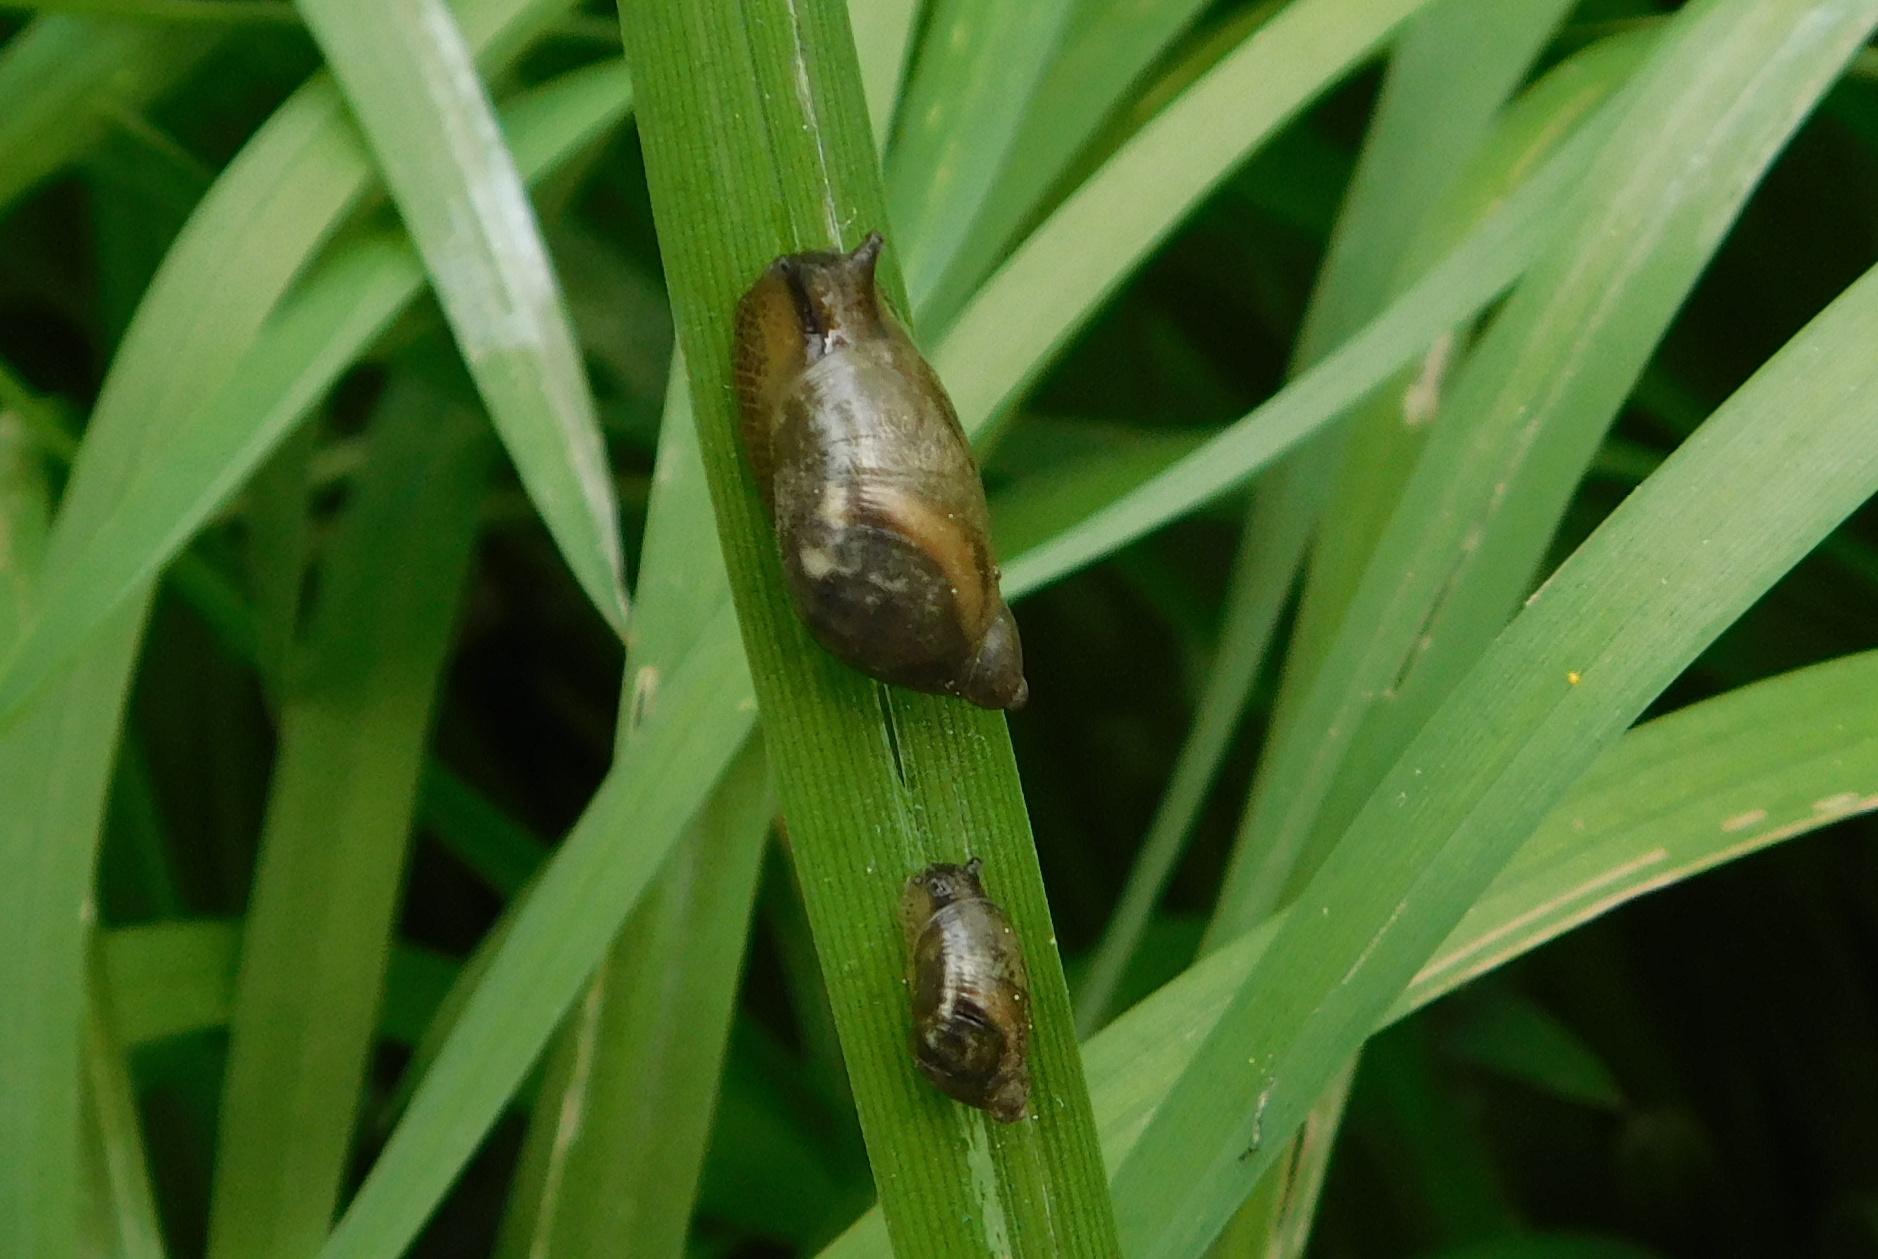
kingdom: Animalia
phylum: Mollusca
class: Gastropoda
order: Stylommatophora
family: Succineidae
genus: Succinea
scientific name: Succinea putris
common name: European ambersnail
